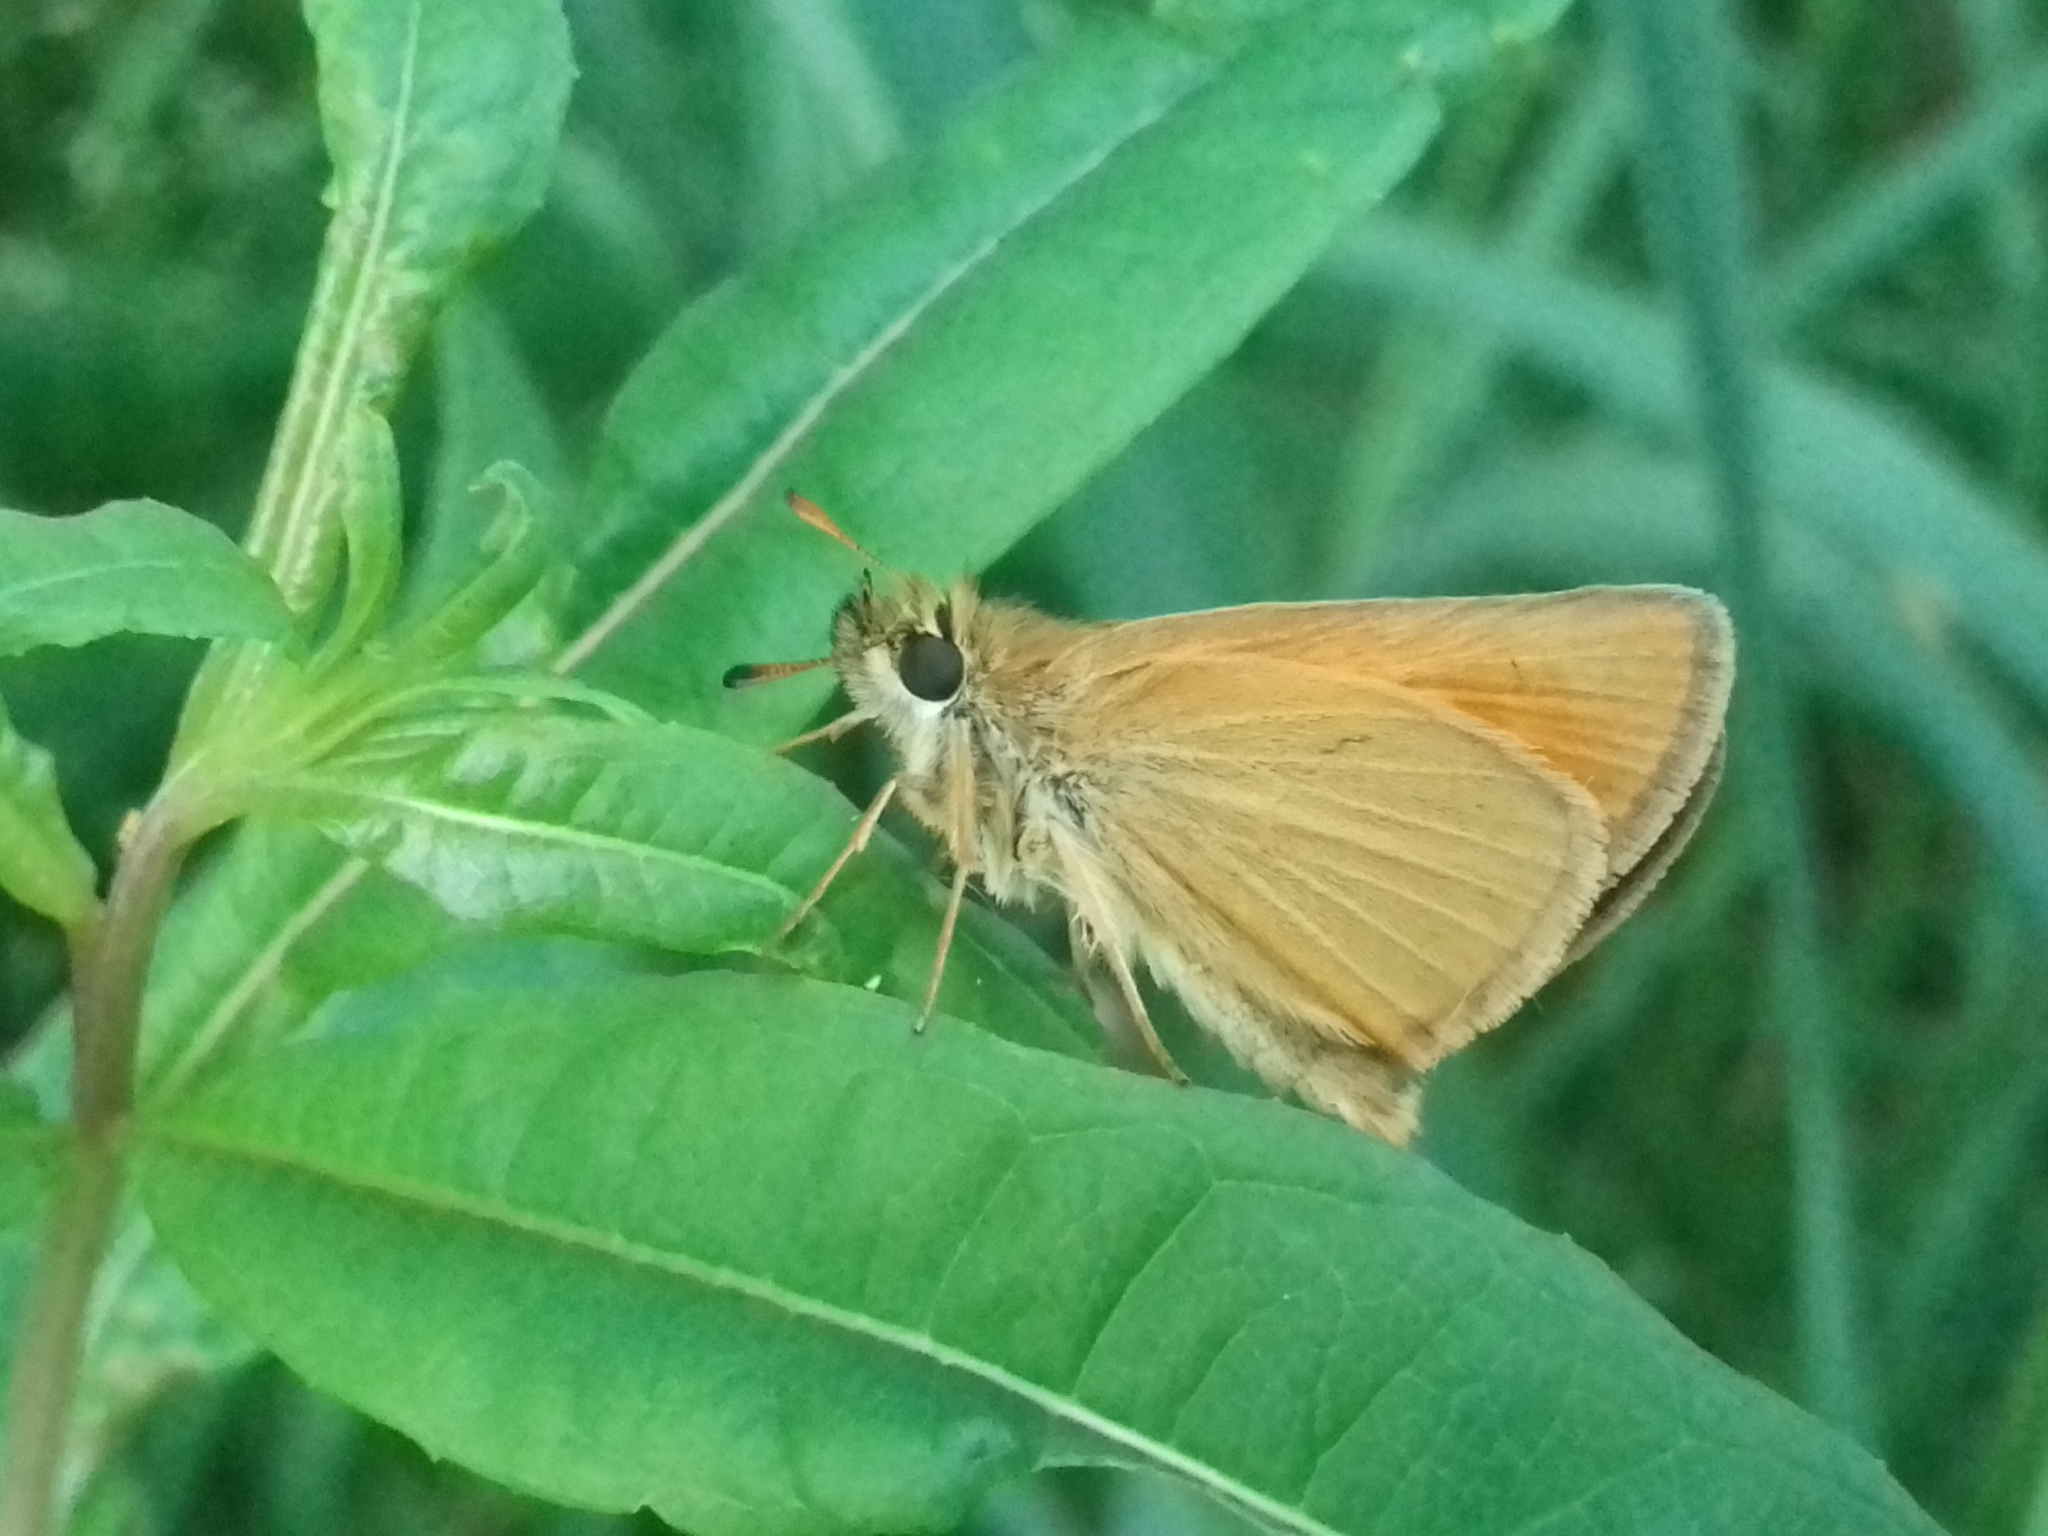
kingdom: Animalia
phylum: Arthropoda
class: Insecta
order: Lepidoptera
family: Hesperiidae
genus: Thymelicus
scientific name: Thymelicus lineola
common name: Essex skipper
